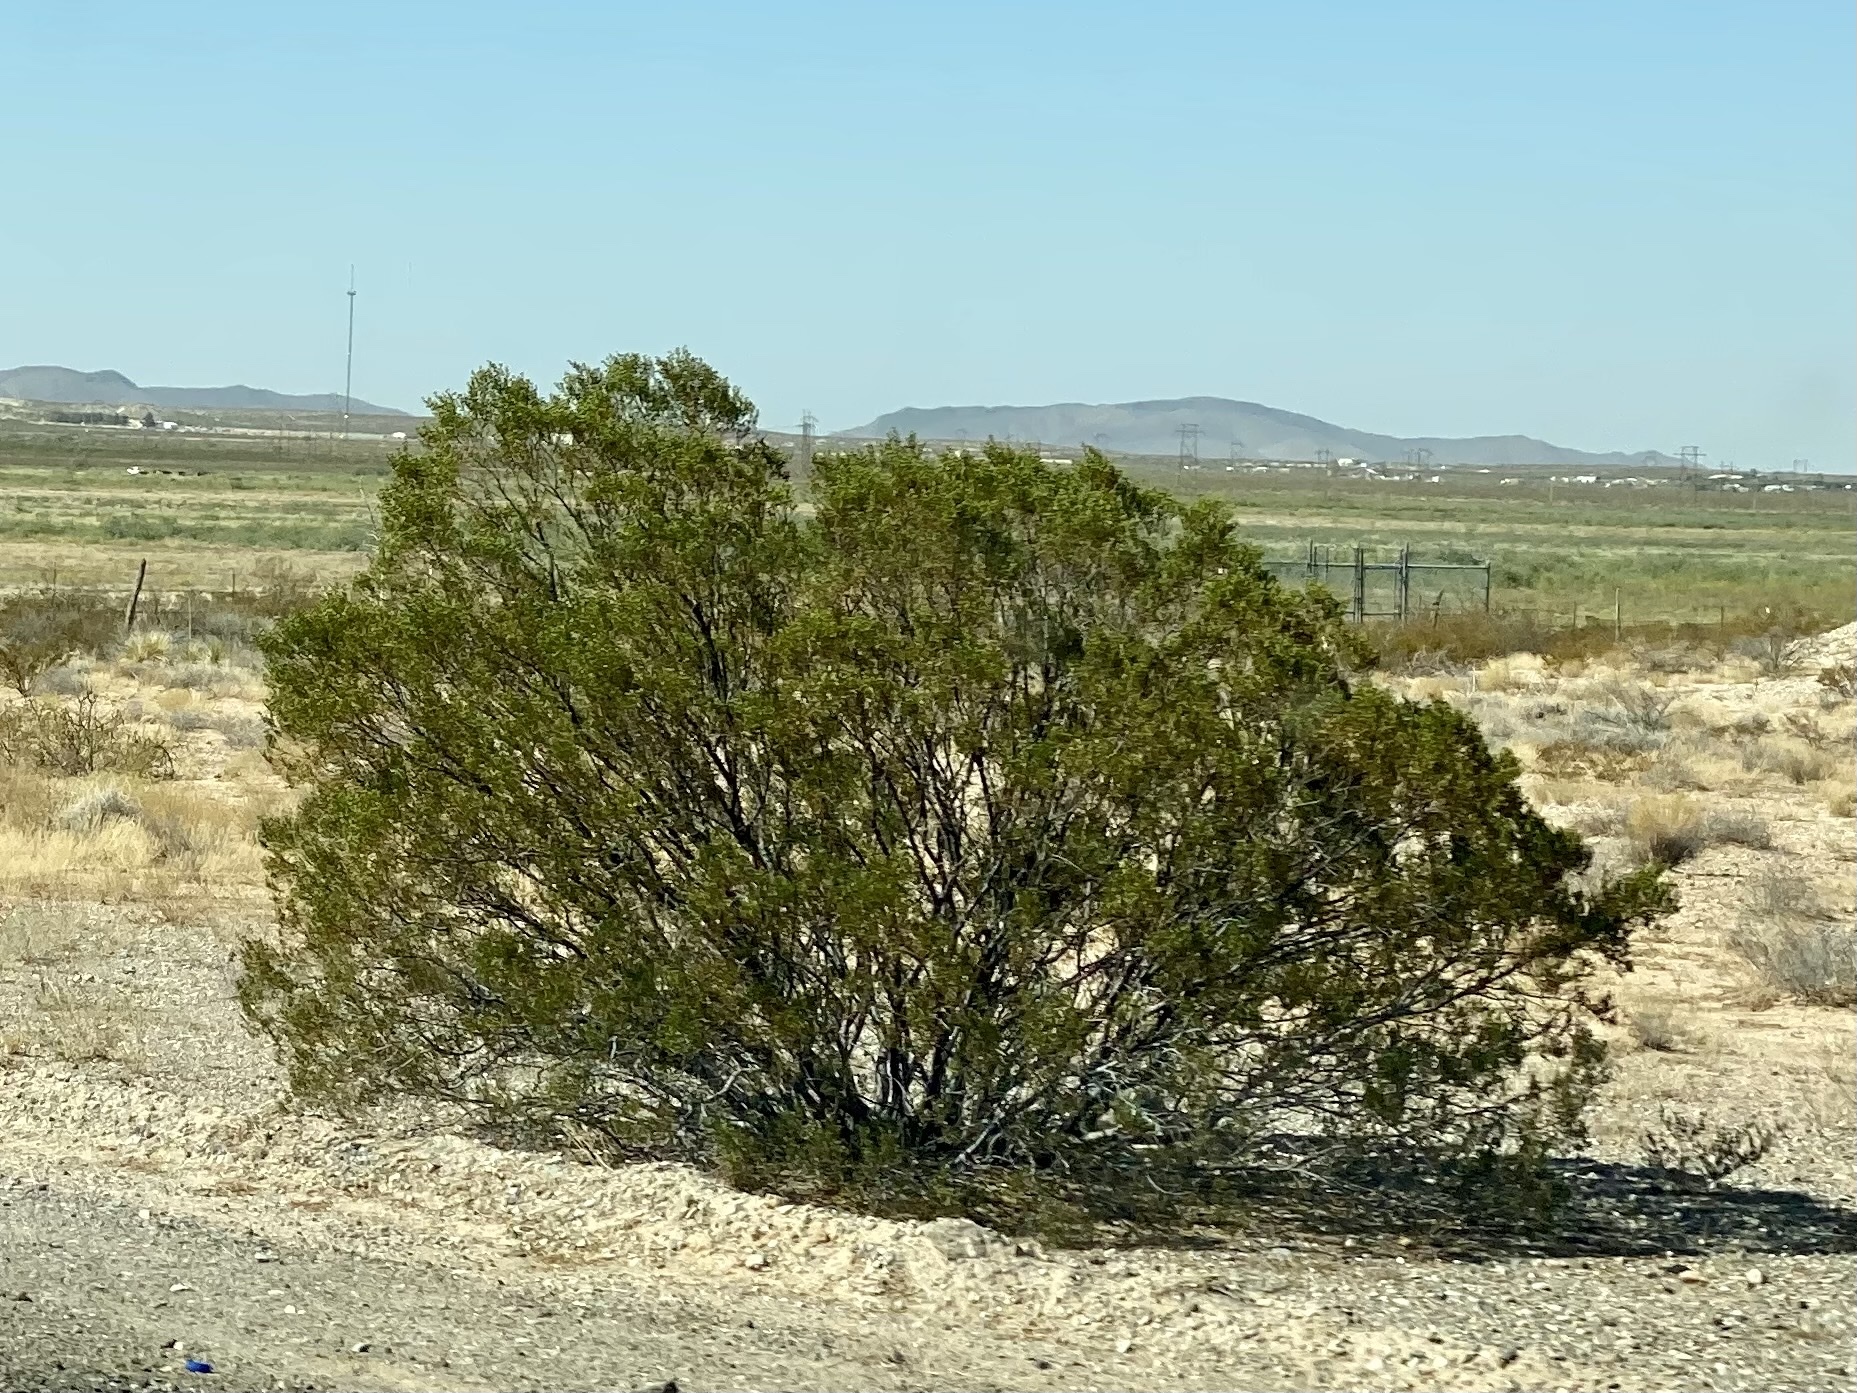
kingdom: Plantae
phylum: Tracheophyta
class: Magnoliopsida
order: Zygophyllales
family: Zygophyllaceae
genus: Larrea
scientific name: Larrea tridentata
